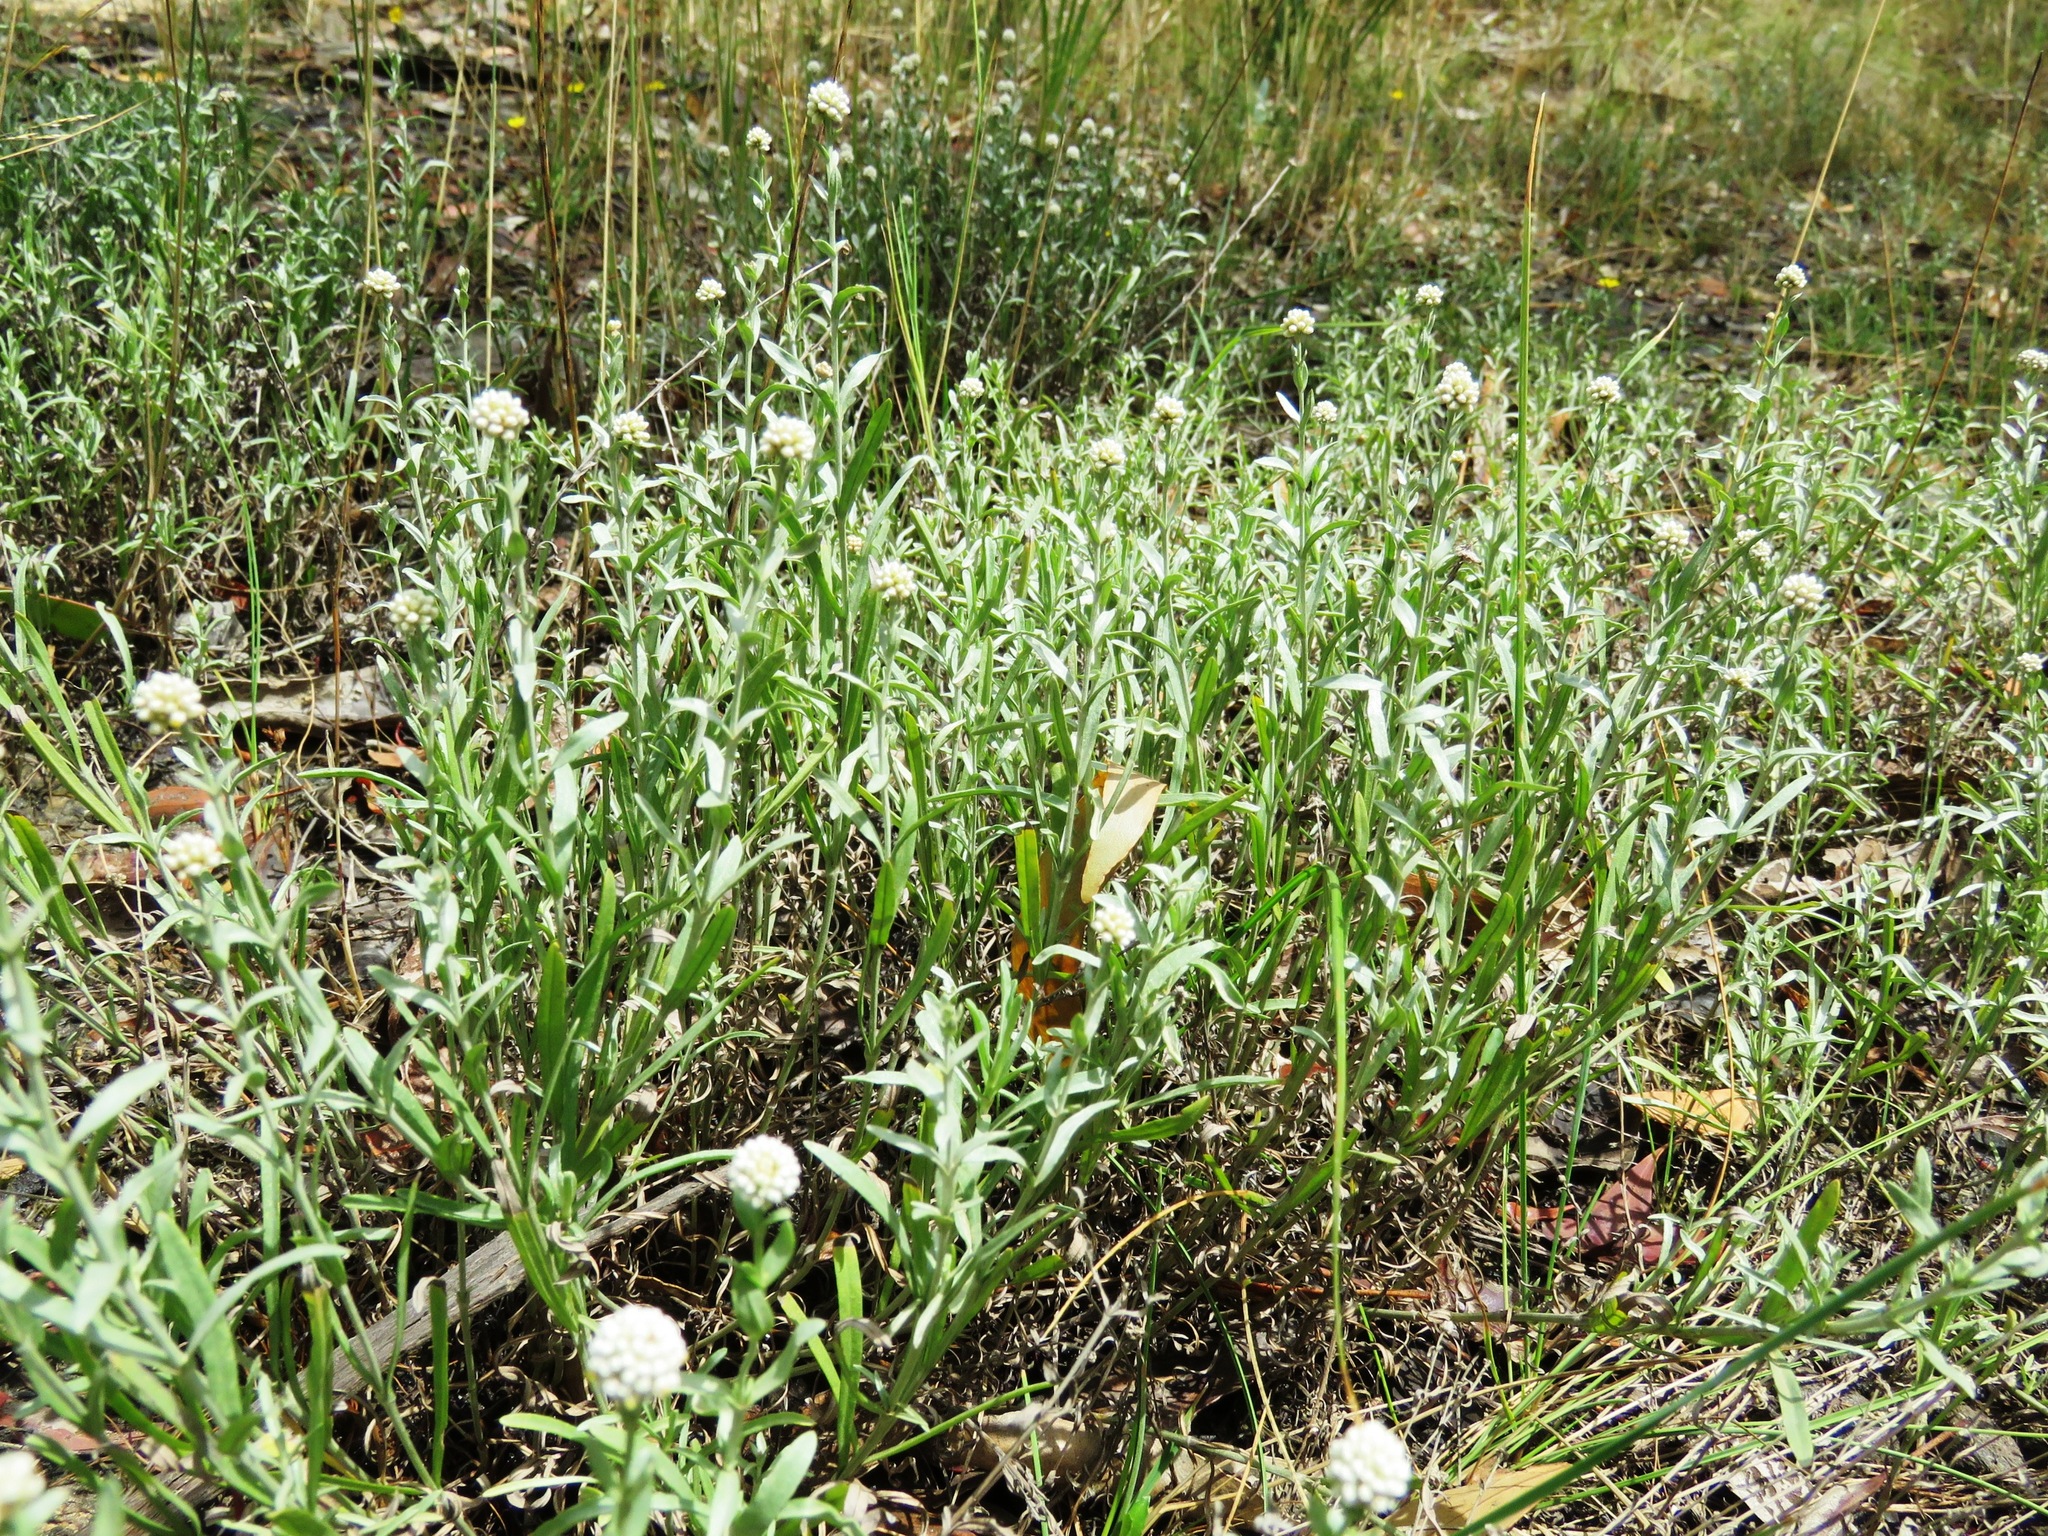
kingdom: Plantae
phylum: Tracheophyta
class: Magnoliopsida
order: Asterales
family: Asteraceae
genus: Calocephalus
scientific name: Calocephalus lacteus
